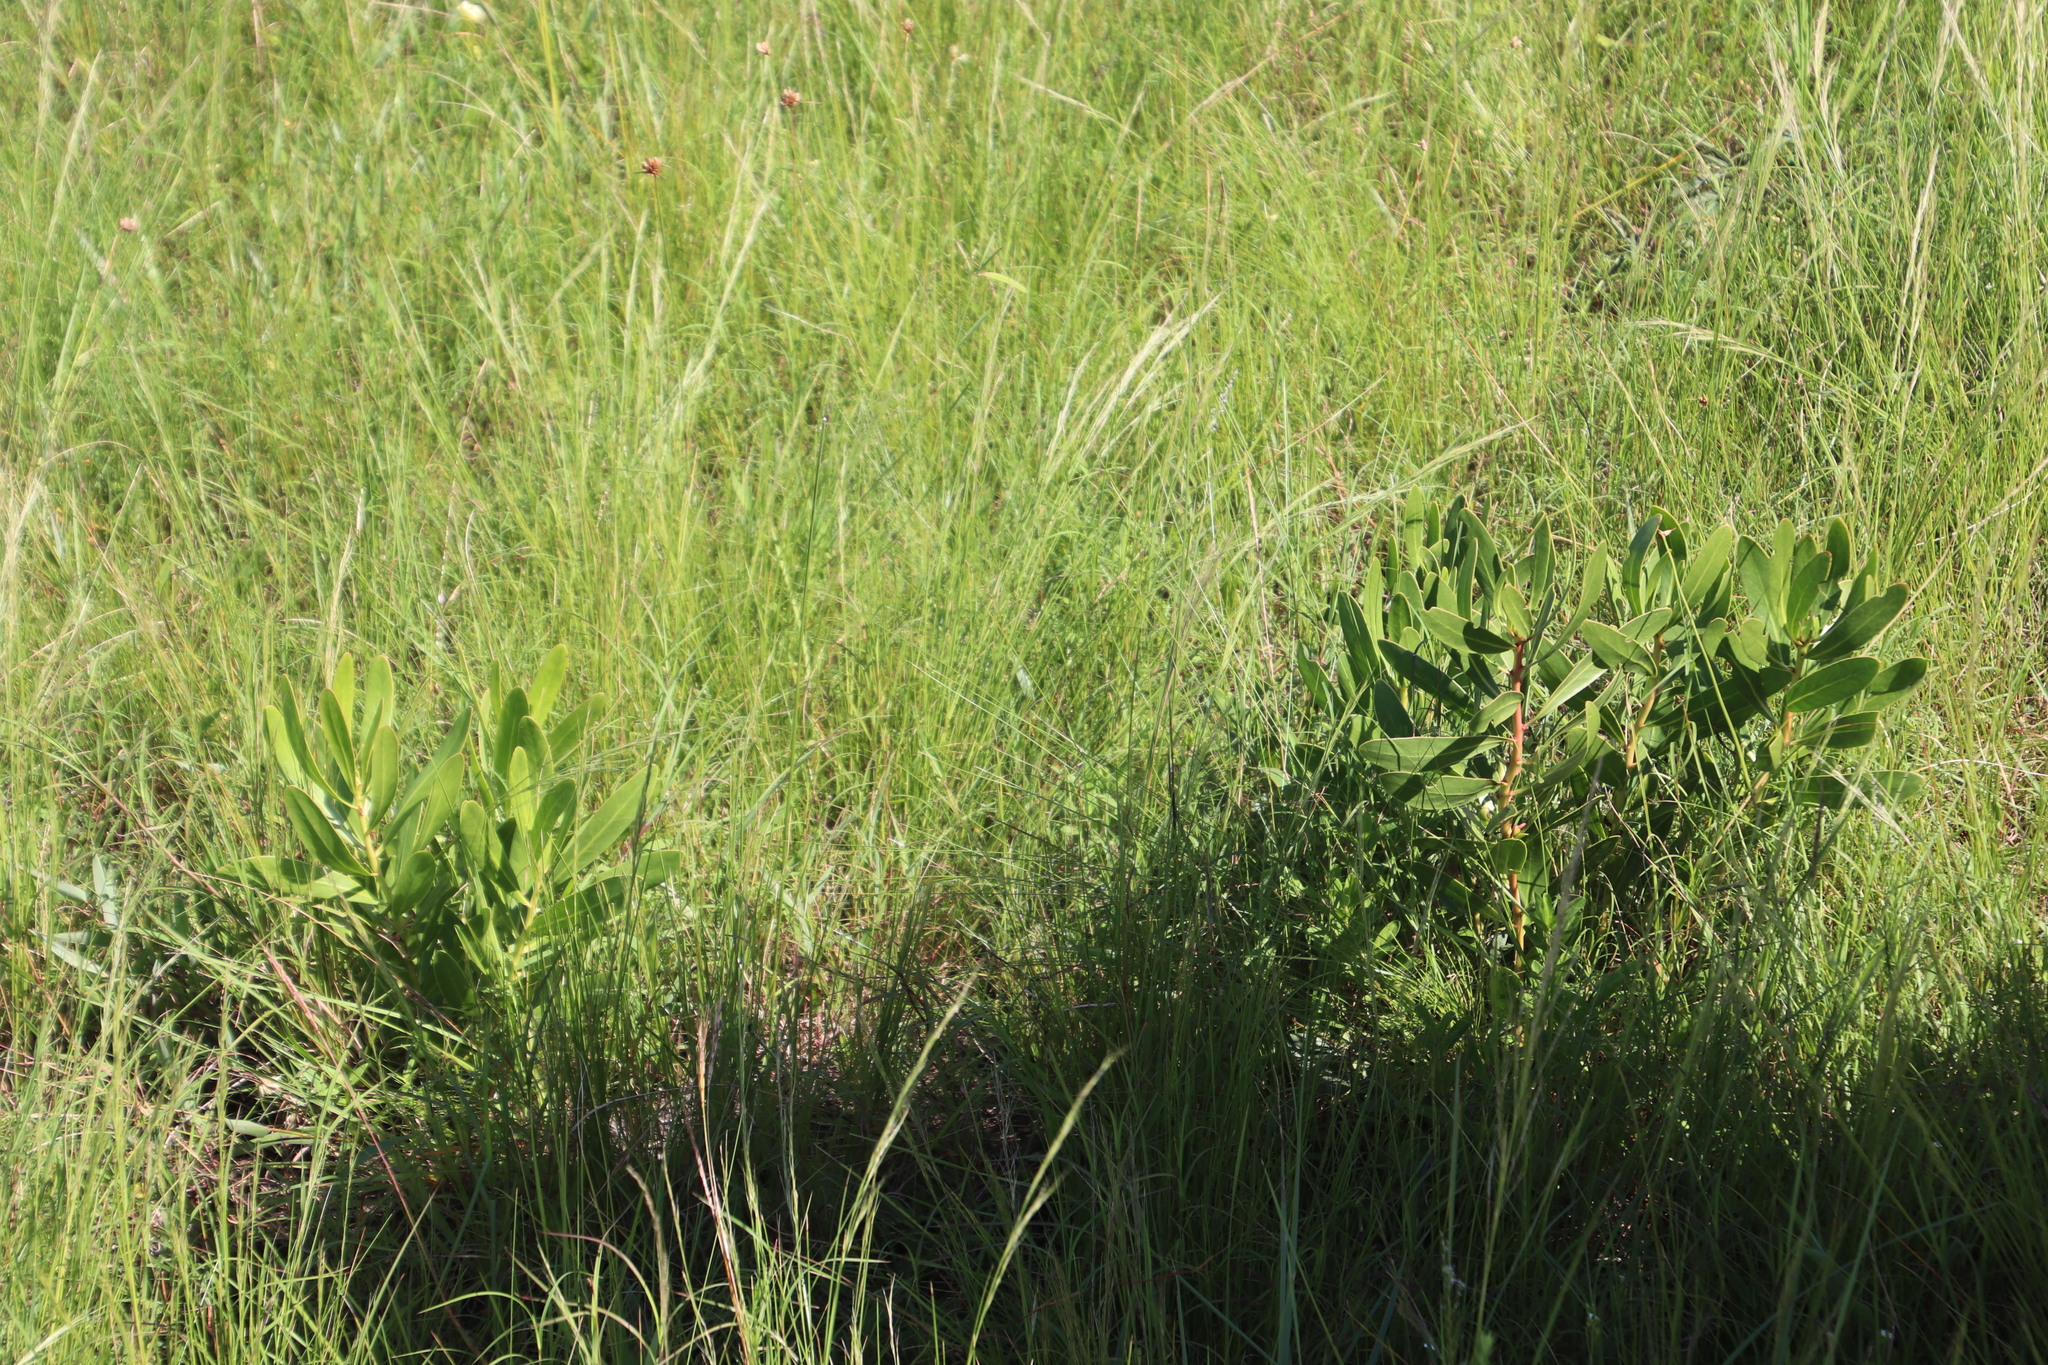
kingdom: Plantae
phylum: Tracheophyta
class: Magnoliopsida
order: Proteales
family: Proteaceae
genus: Protea
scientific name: Protea simplex
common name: Dwarf grassveld sugarbush
